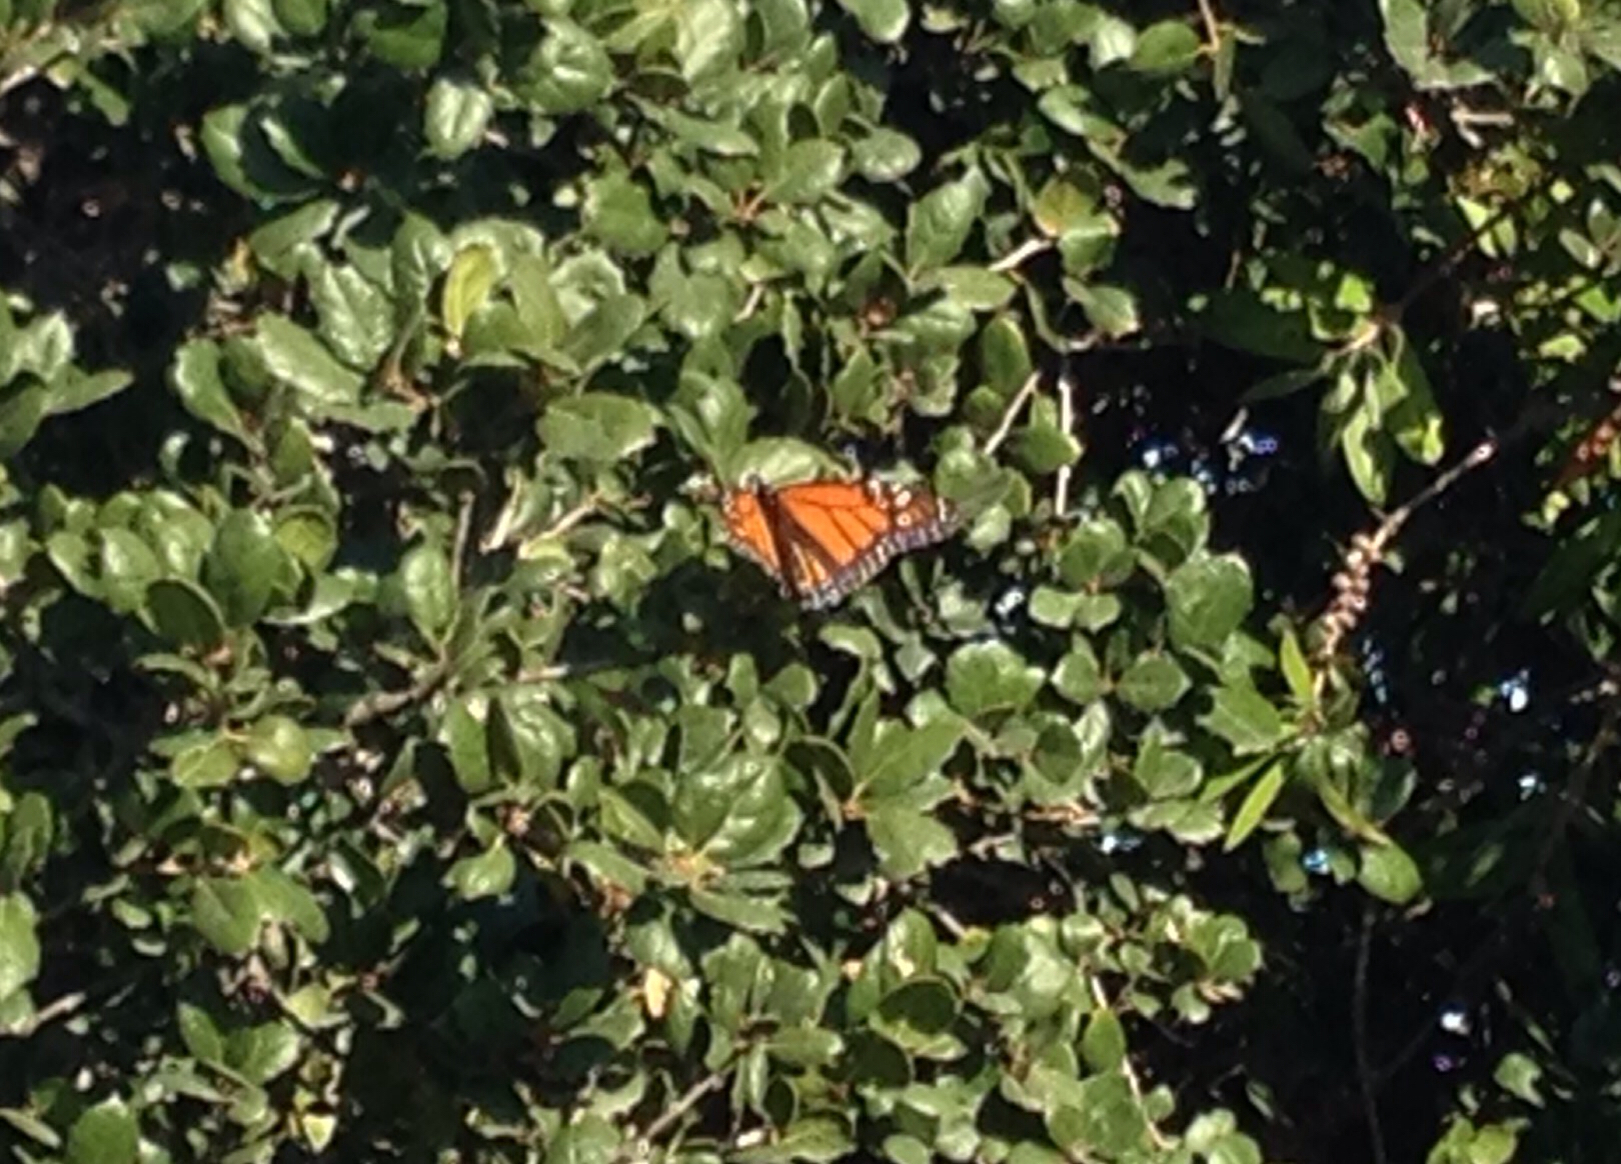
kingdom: Animalia
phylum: Arthropoda
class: Insecta
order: Lepidoptera
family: Nymphalidae
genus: Danaus
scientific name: Danaus plexippus
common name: Monarch
